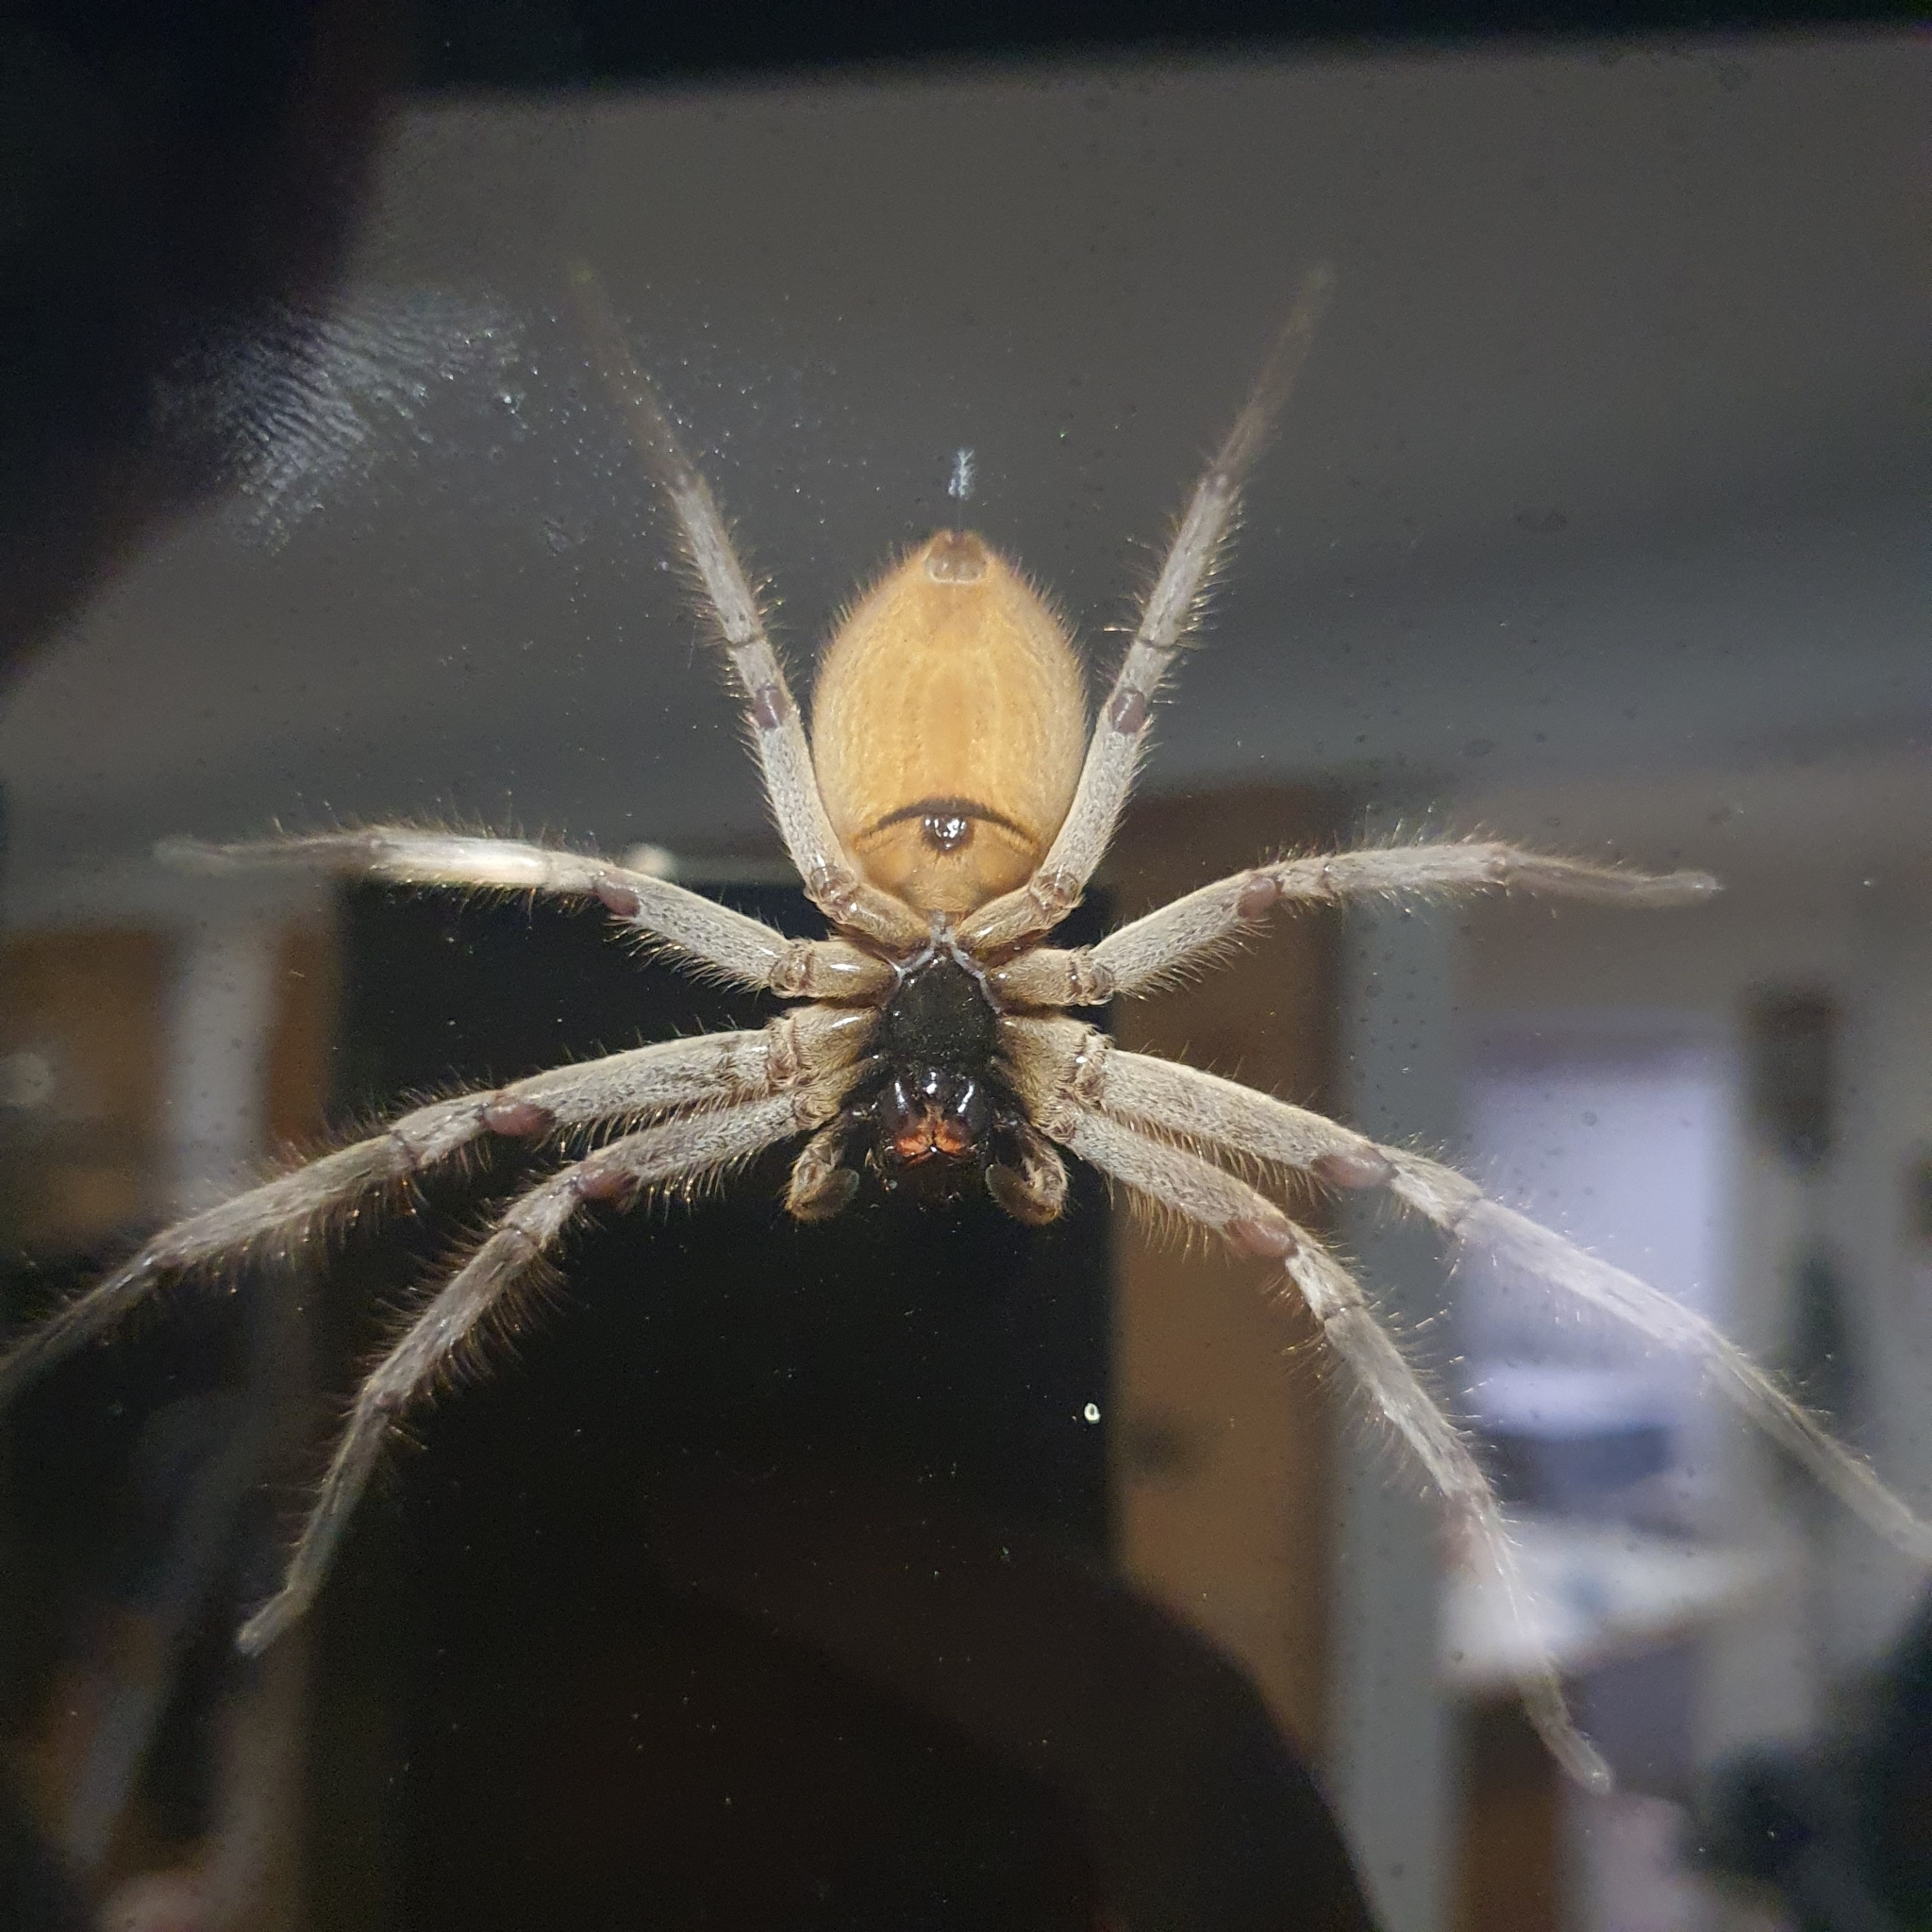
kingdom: Animalia
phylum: Arthropoda
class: Arachnida
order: Araneae
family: Sparassidae
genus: Isopeda
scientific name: Isopeda canberrana
